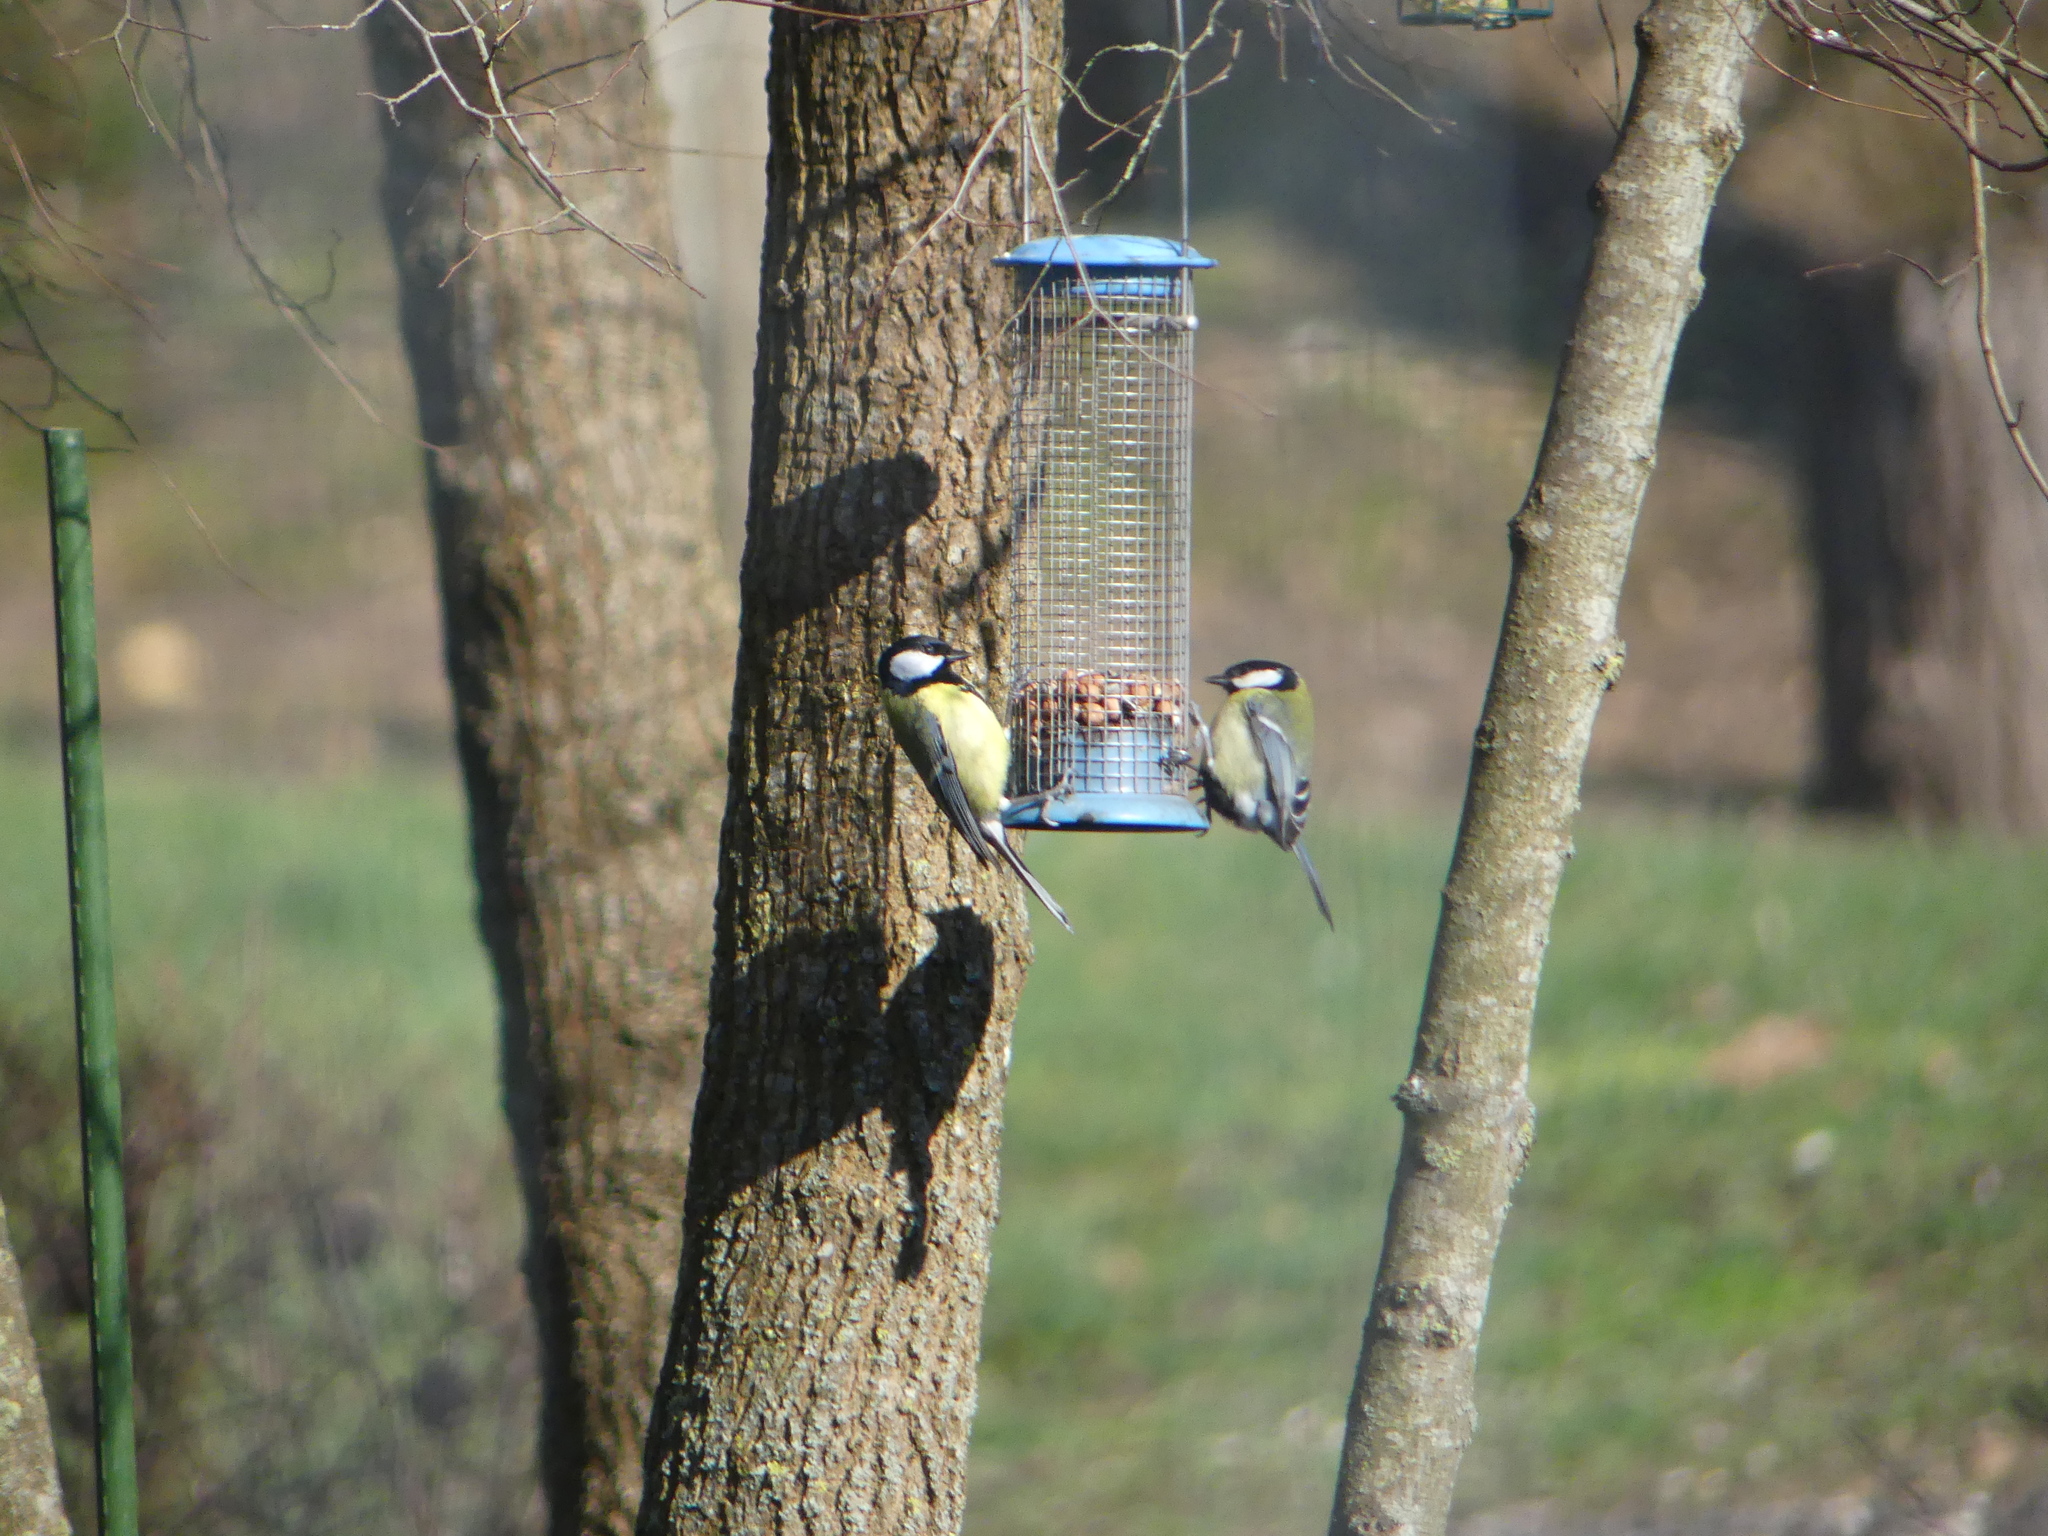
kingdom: Animalia
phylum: Chordata
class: Aves
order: Passeriformes
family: Paridae
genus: Parus
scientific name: Parus major
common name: Great tit
